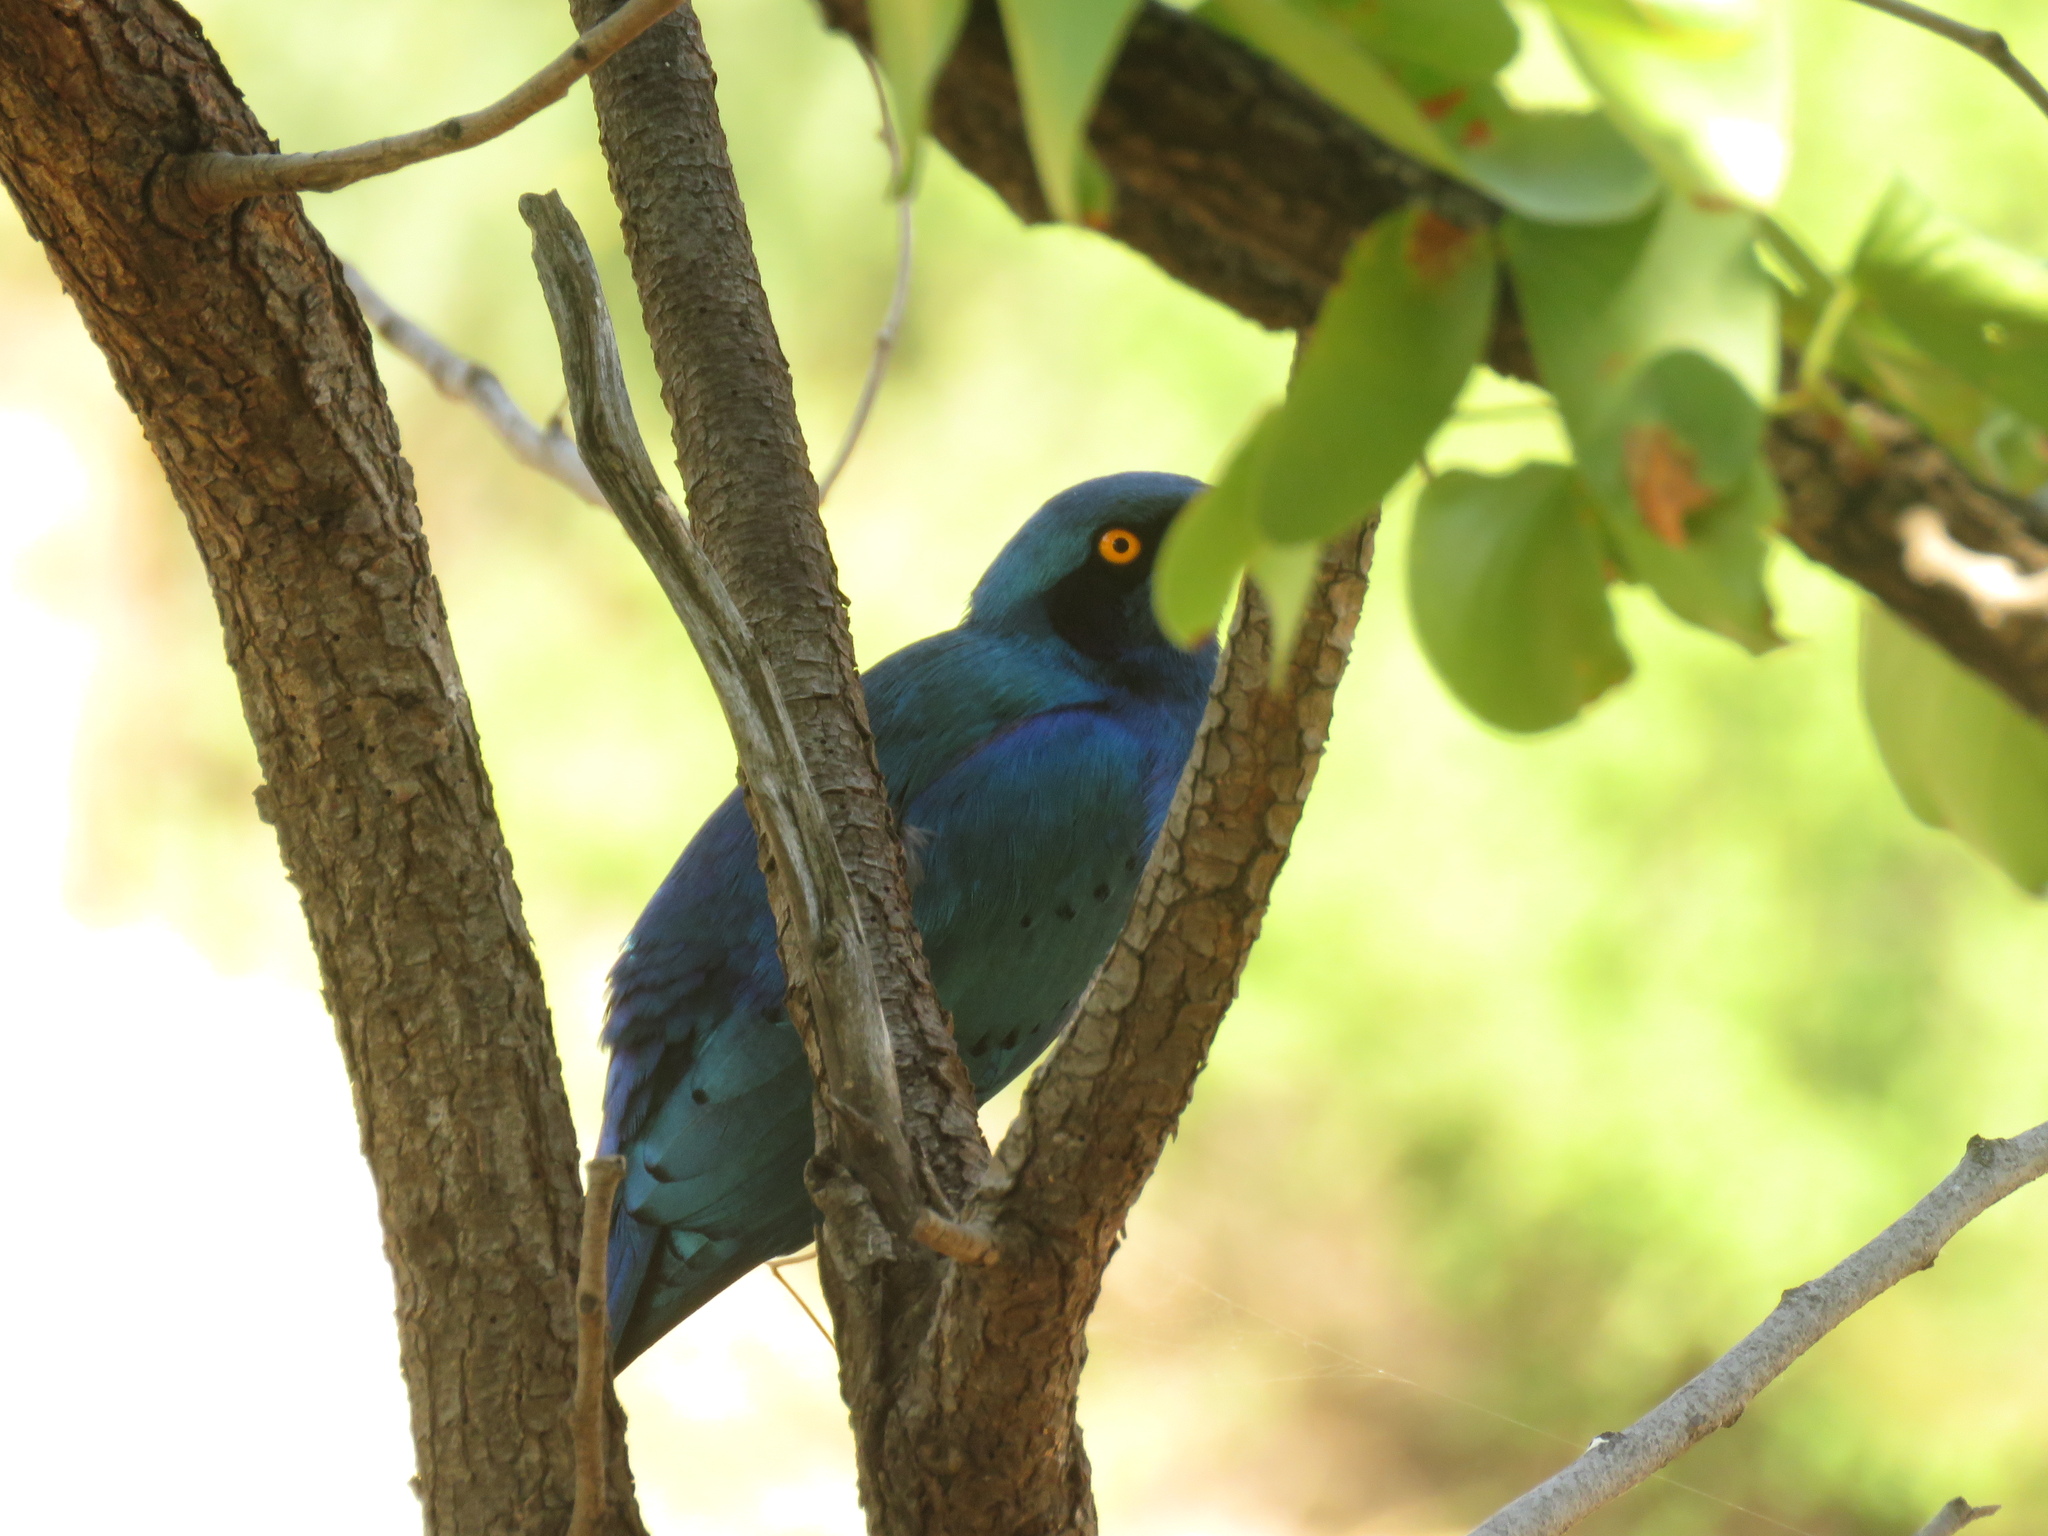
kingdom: Animalia
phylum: Chordata
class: Aves
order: Passeriformes
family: Sturnidae
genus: Lamprotornis
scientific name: Lamprotornis chalybaeus
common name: Greater blue-eared starling
